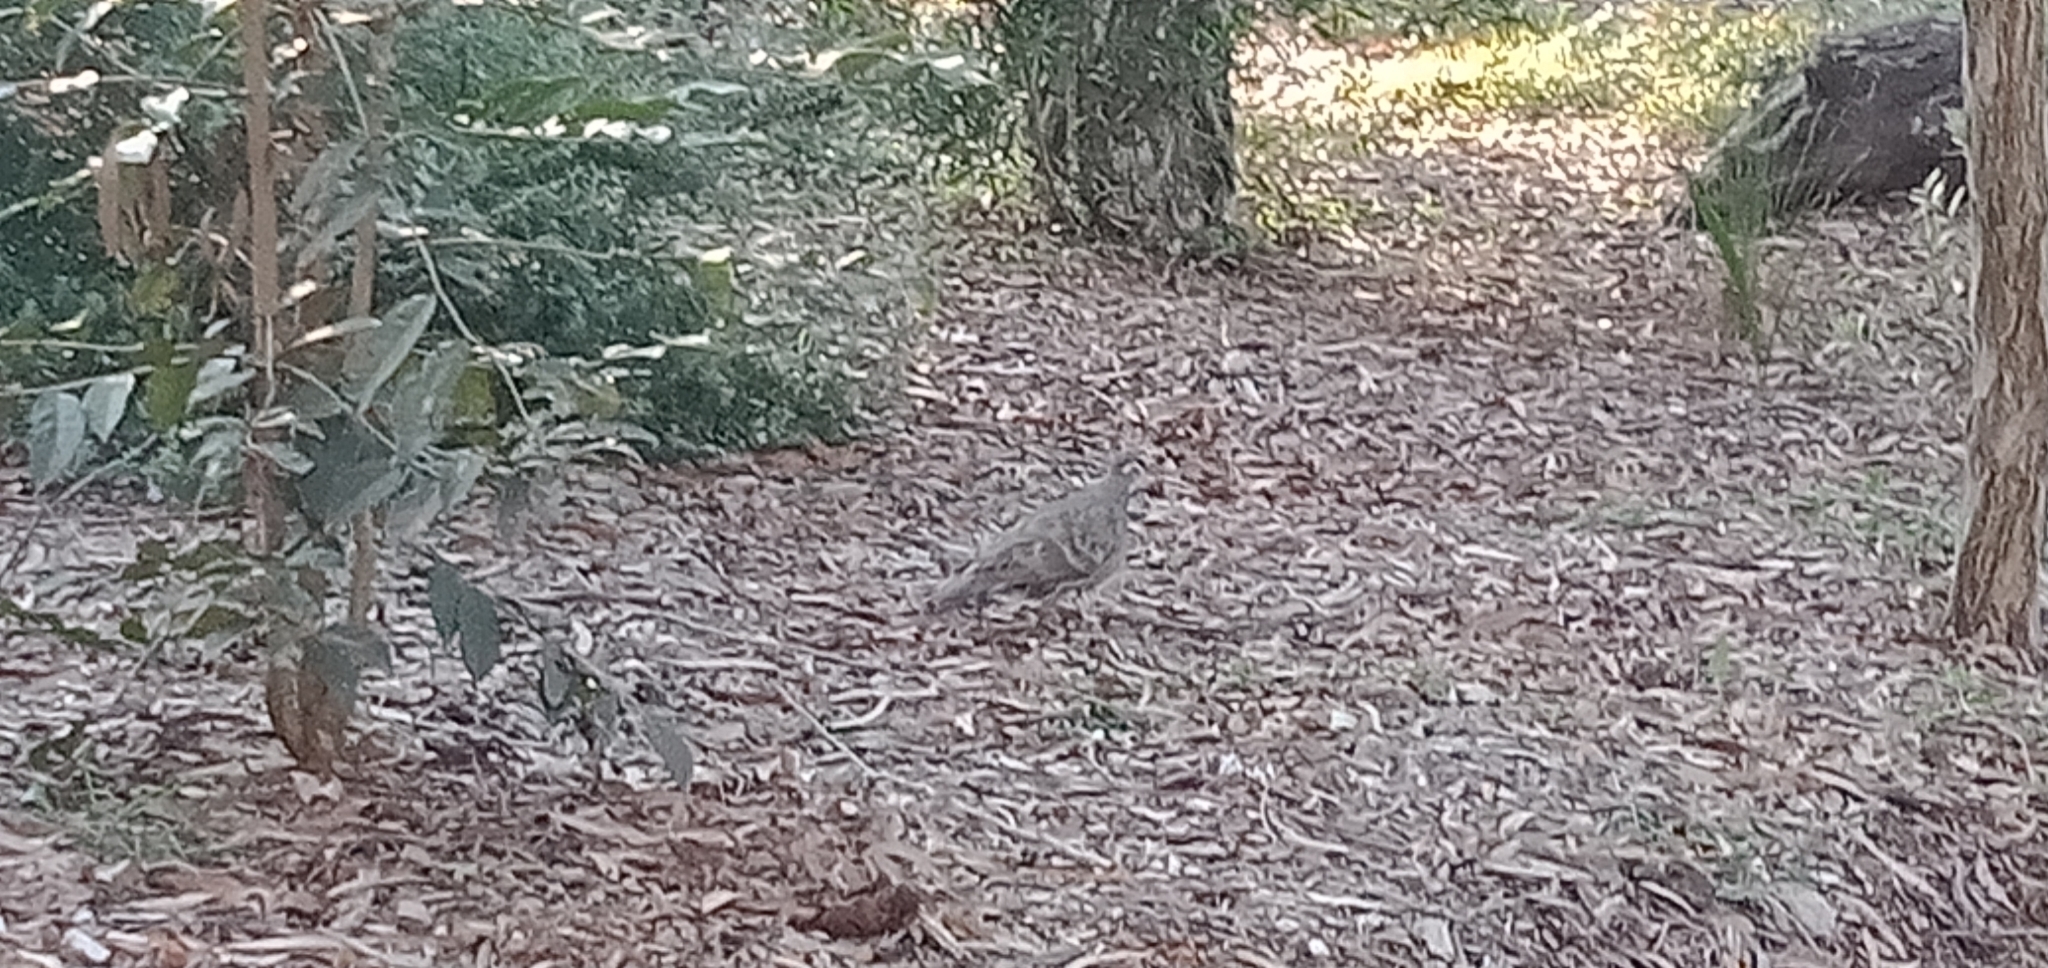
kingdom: Animalia
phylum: Chordata
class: Aves
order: Columbiformes
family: Columbidae
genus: Phaps
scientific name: Phaps chalcoptera
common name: Common bronzewing
